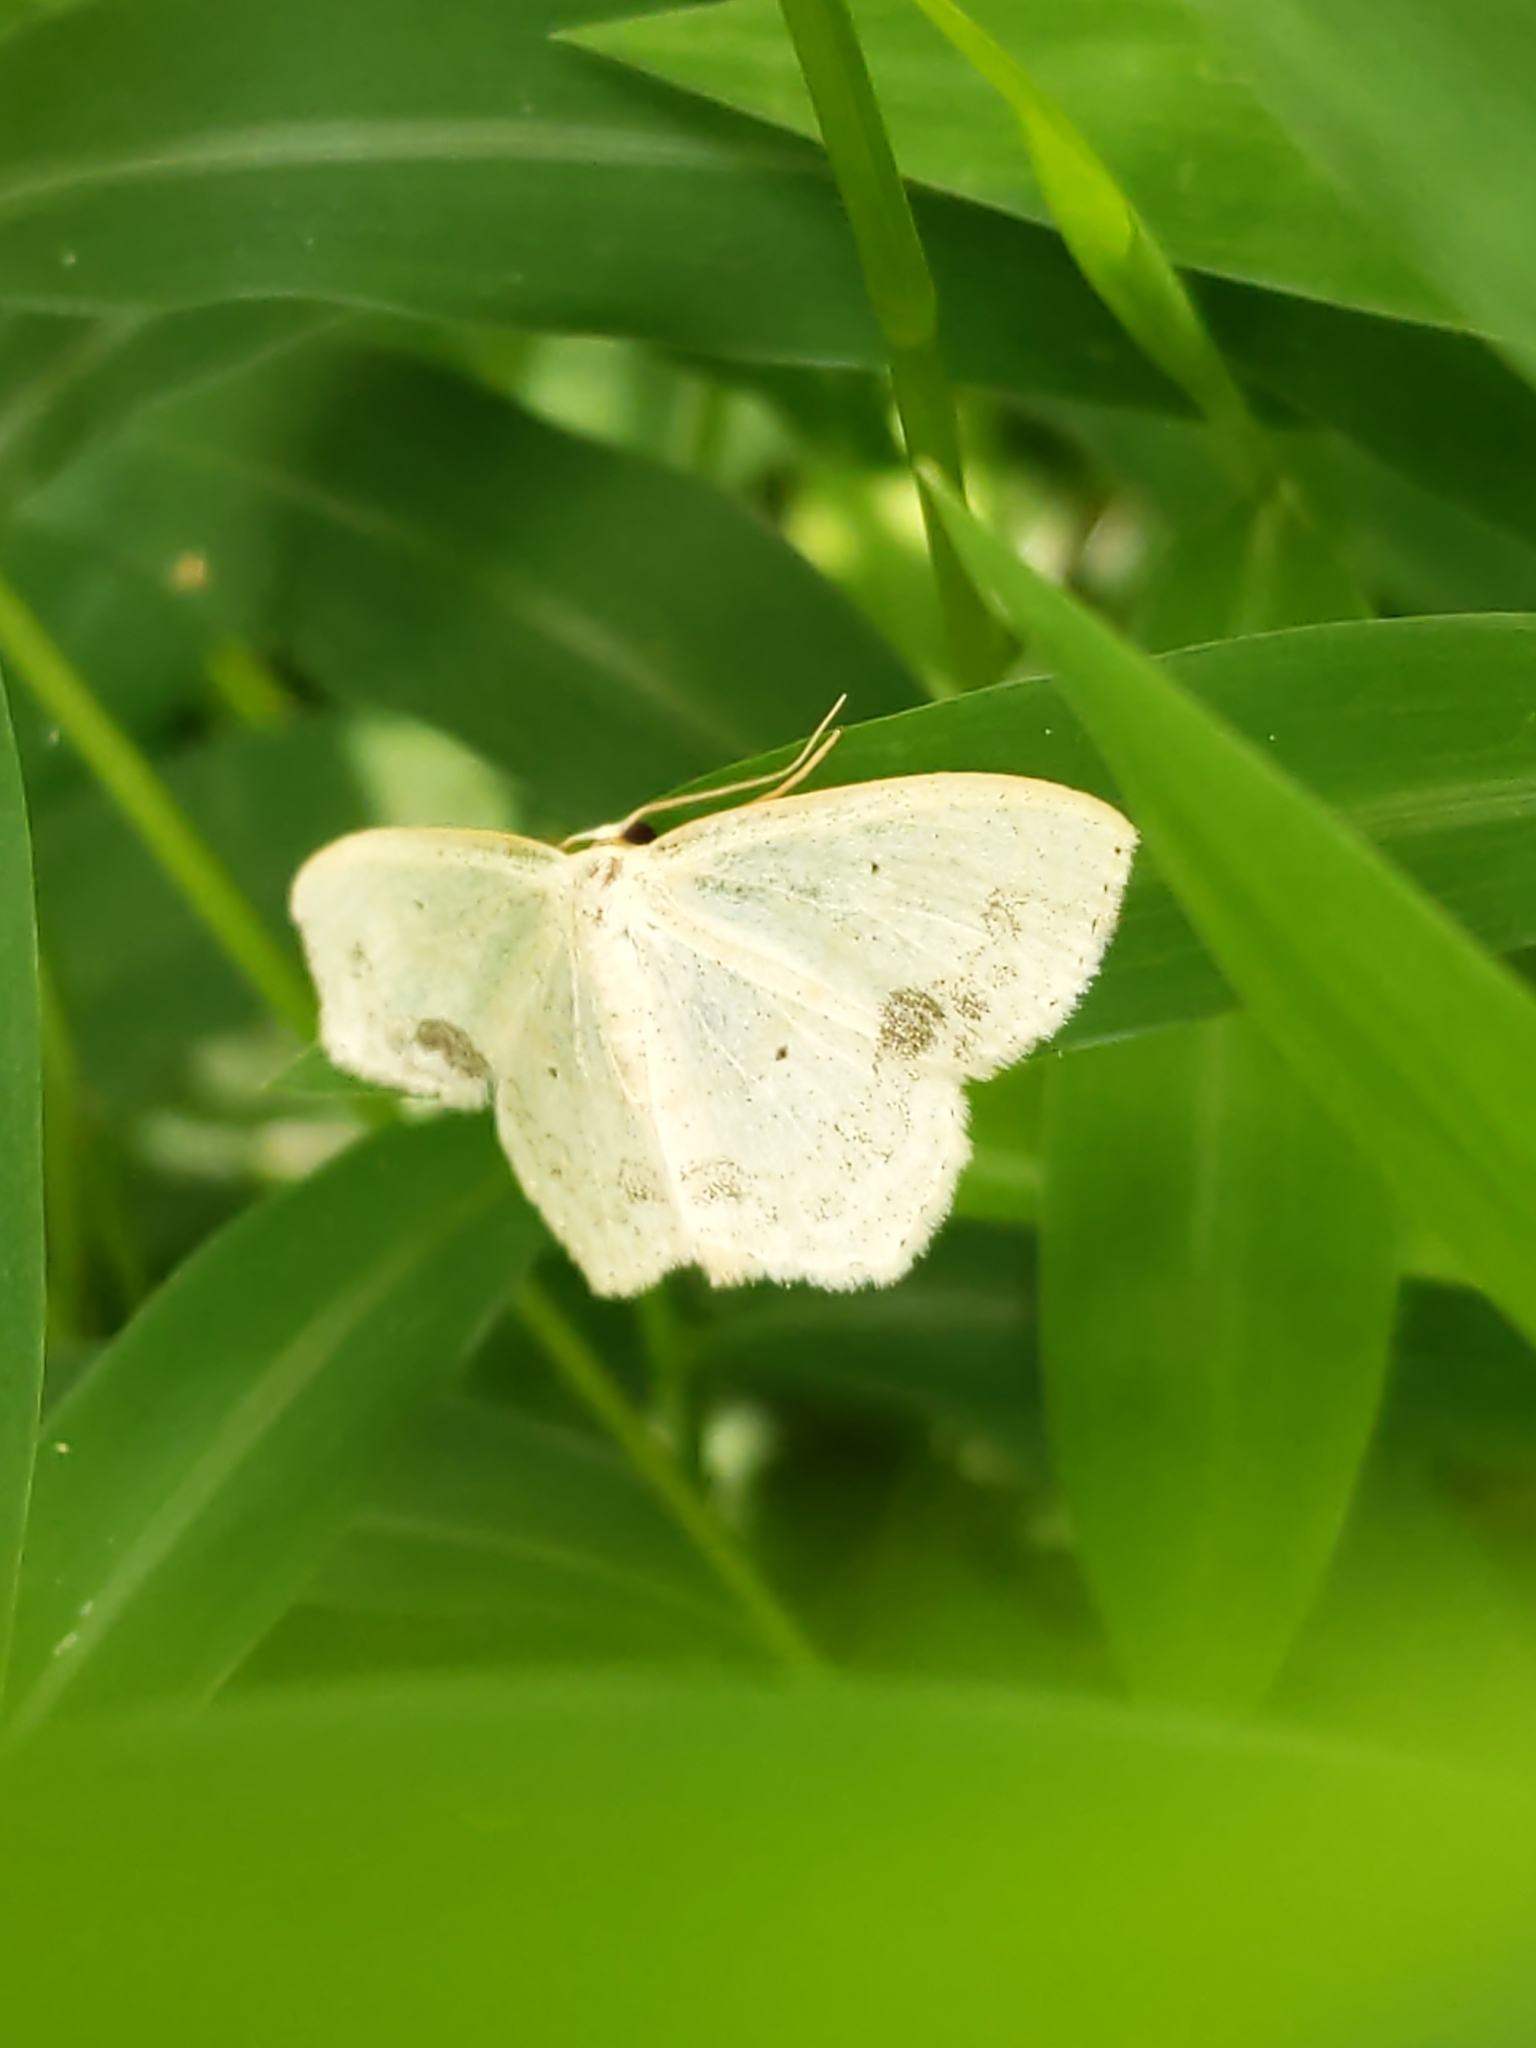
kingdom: Animalia
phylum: Arthropoda
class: Insecta
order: Lepidoptera
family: Geometridae
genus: Scopula
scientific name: Scopula limboundata
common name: Large lace border
